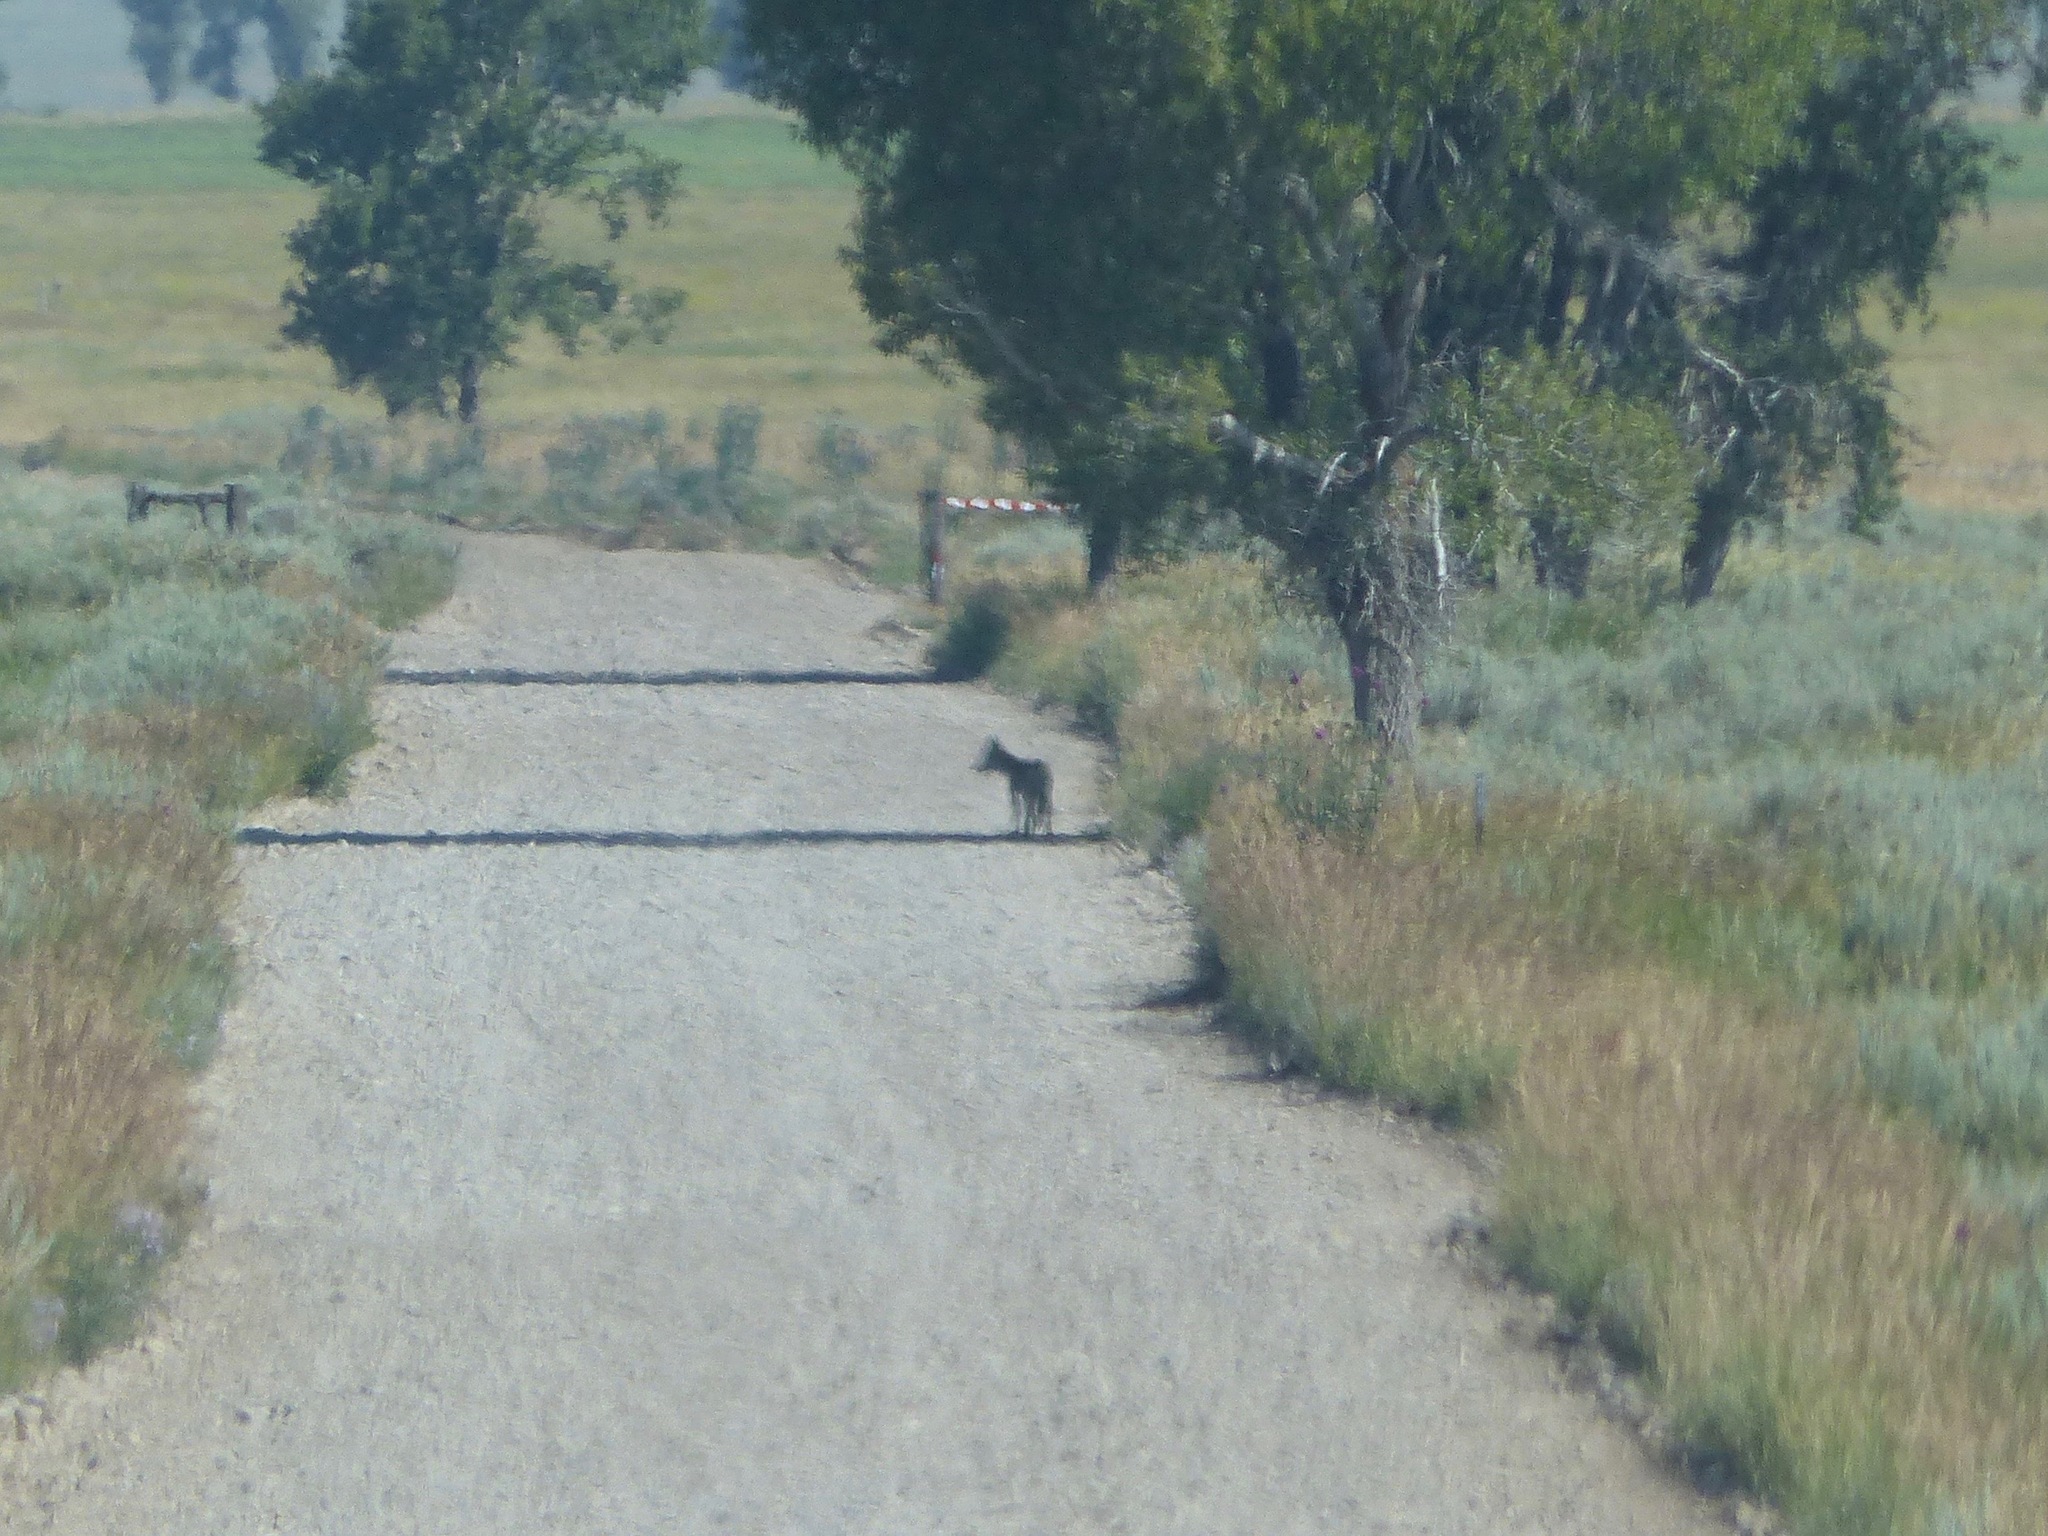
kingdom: Animalia
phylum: Chordata
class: Mammalia
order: Carnivora
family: Canidae
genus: Canis
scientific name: Canis latrans
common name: Coyote
